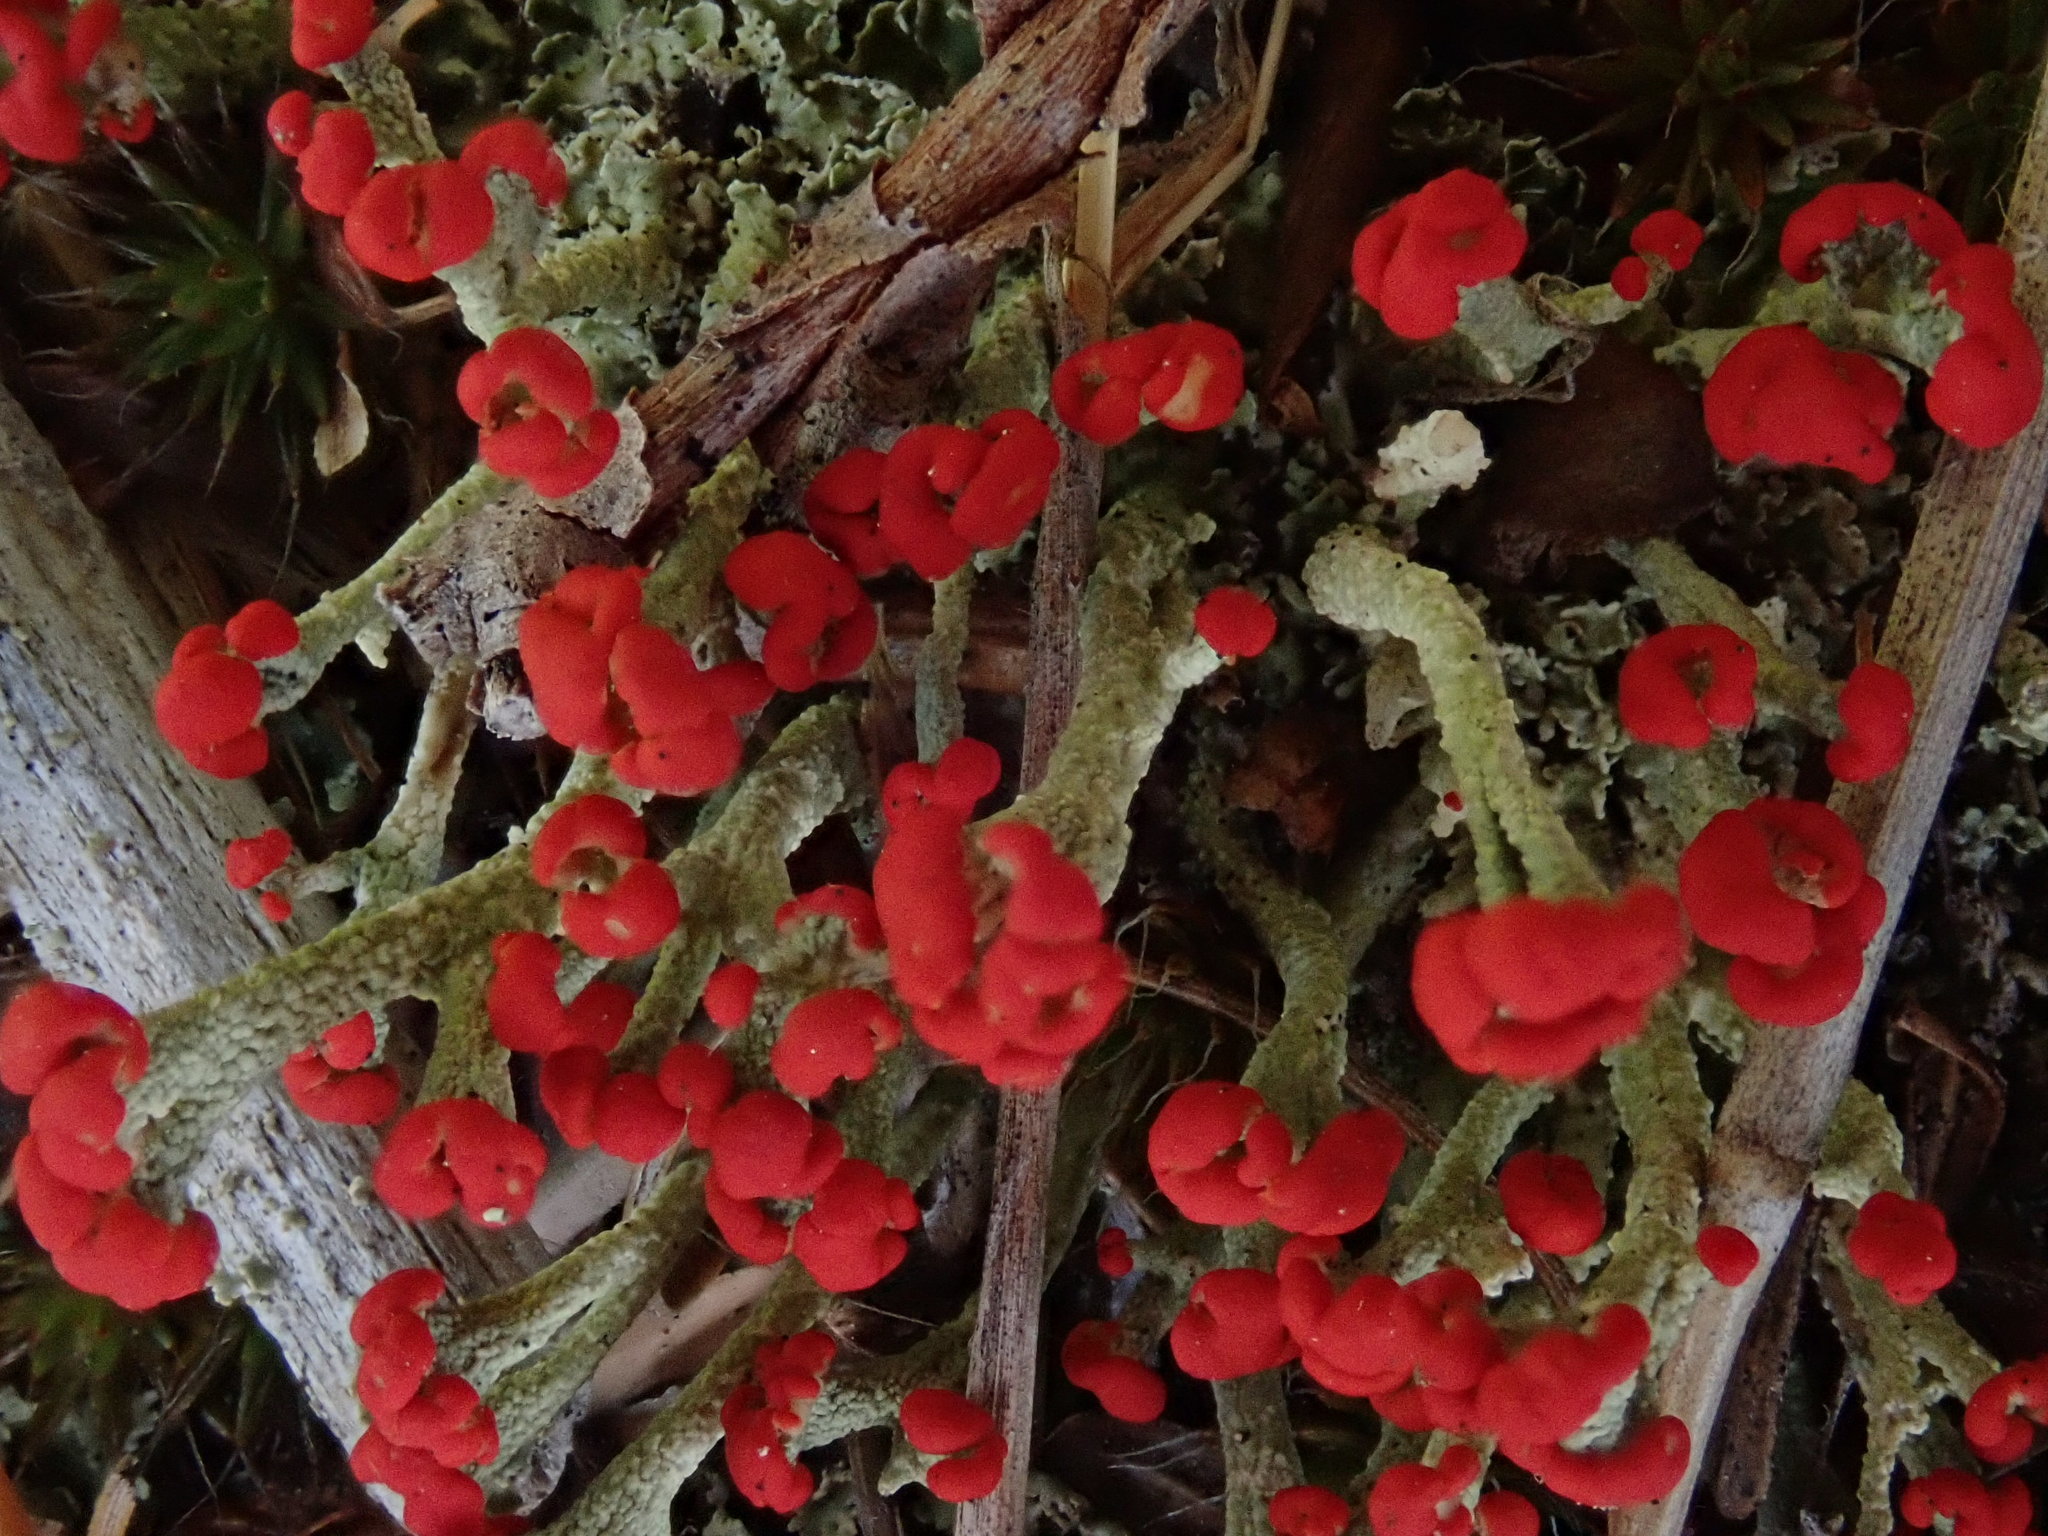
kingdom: Fungi
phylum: Ascomycota
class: Lecanoromycetes
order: Lecanorales
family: Cladoniaceae
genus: Cladonia
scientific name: Cladonia cristatella
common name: British soldier lichen
